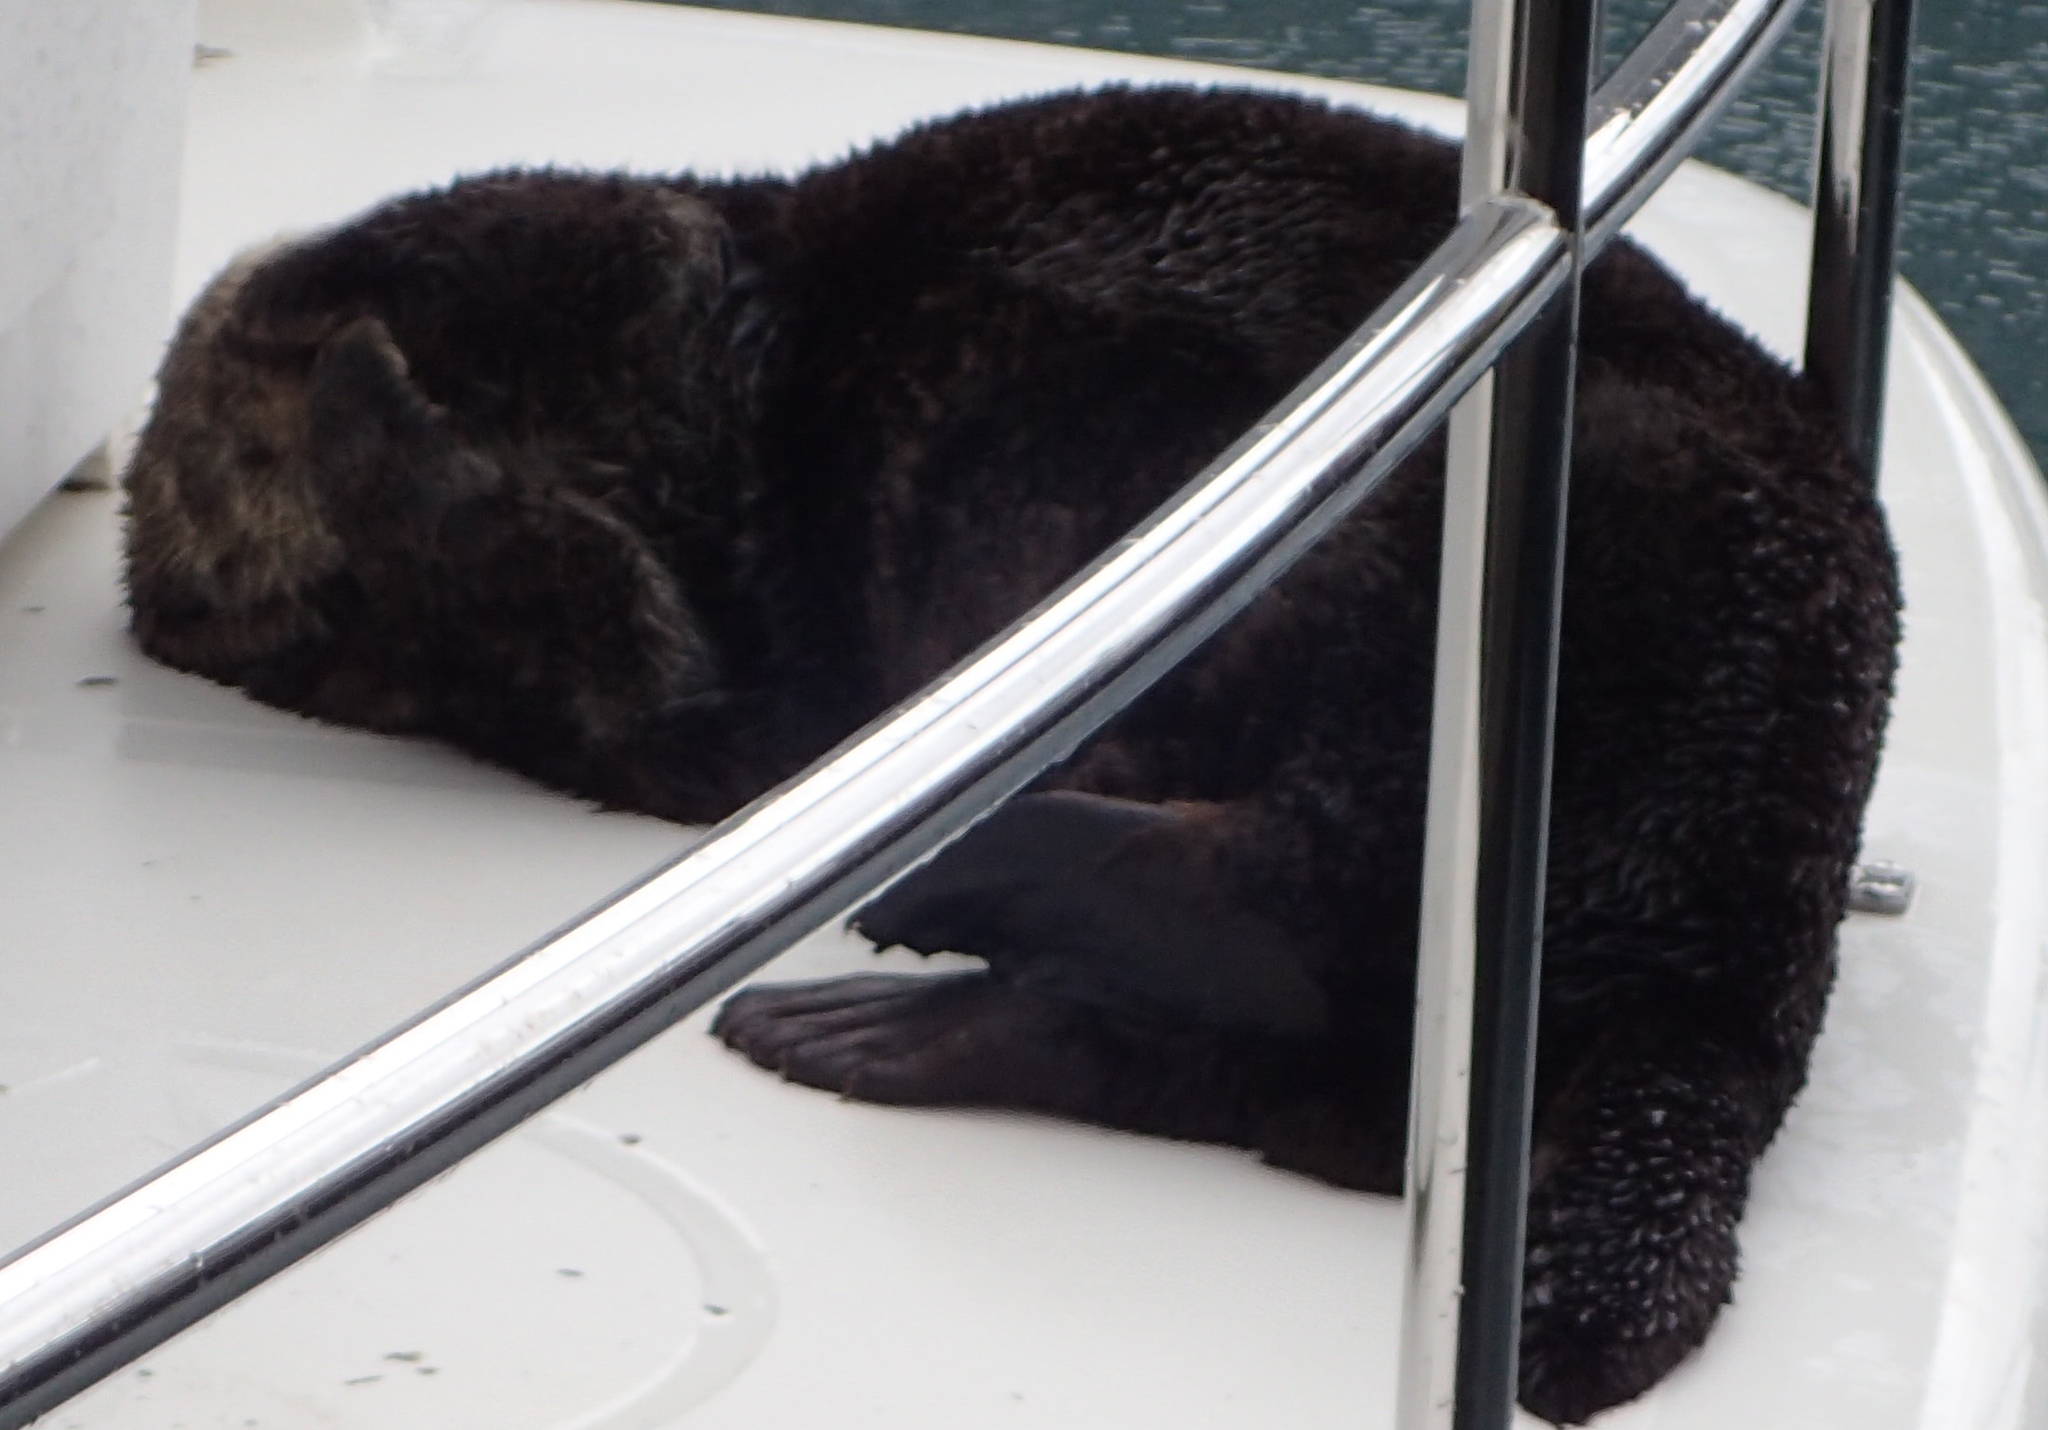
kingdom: Animalia
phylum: Chordata
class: Mammalia
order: Carnivora
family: Mustelidae
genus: Enhydra
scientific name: Enhydra lutris
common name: Sea otter
